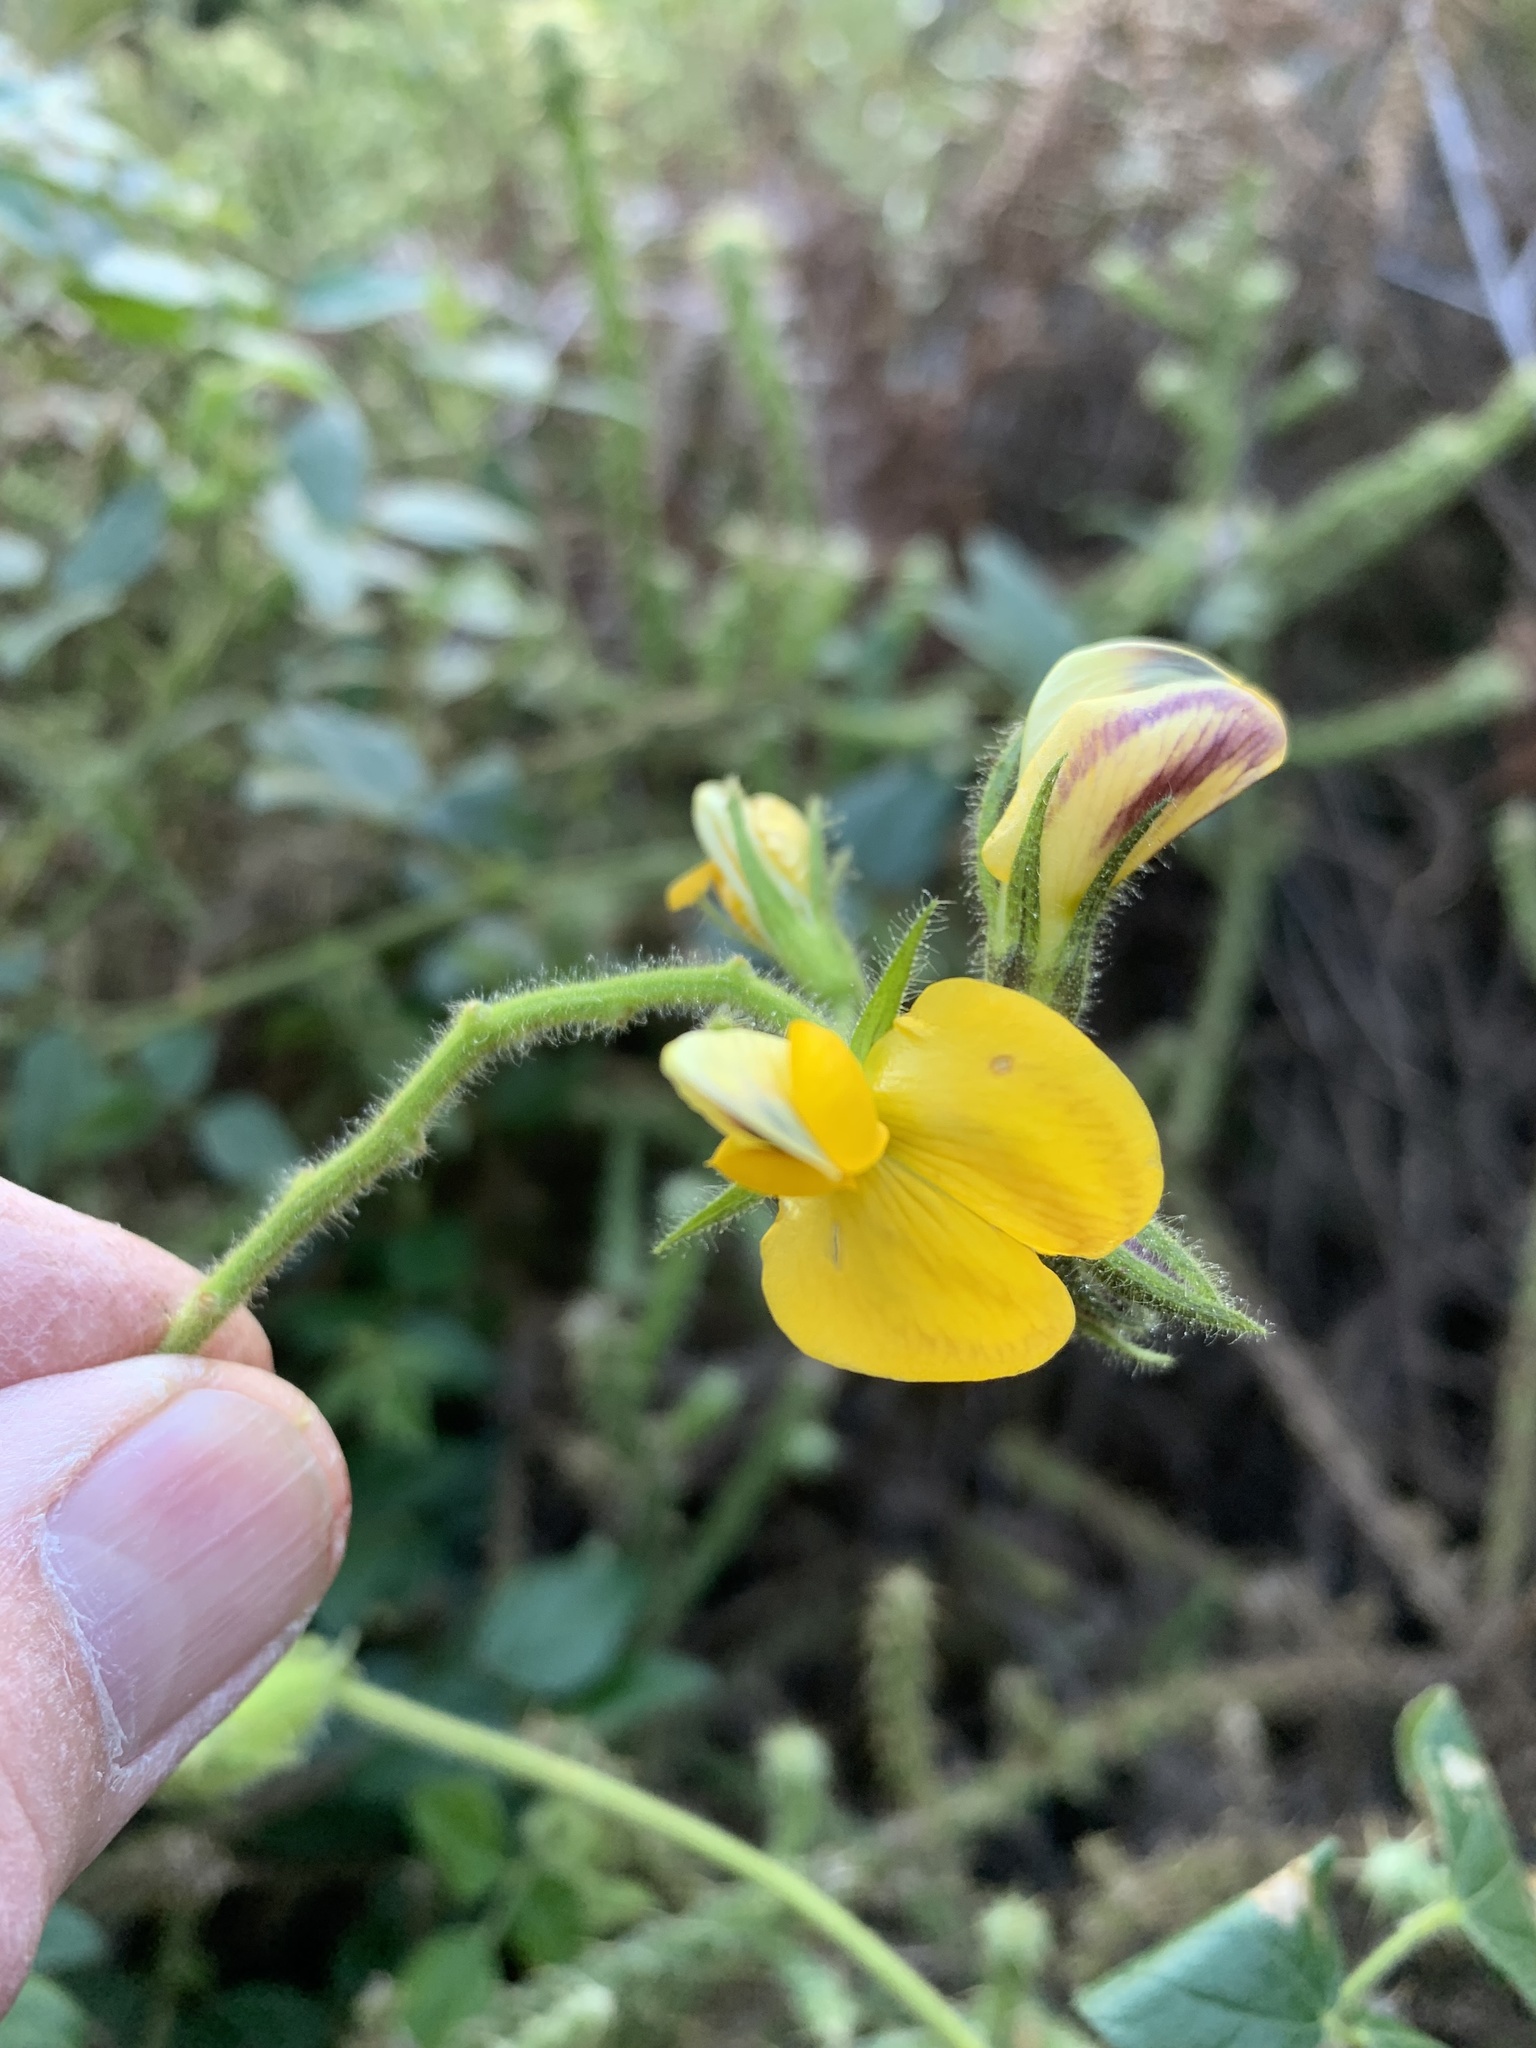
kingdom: Plantae
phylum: Tracheophyta
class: Magnoliopsida
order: Fabales
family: Fabaceae
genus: Bolusafra
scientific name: Bolusafra bituminosa
